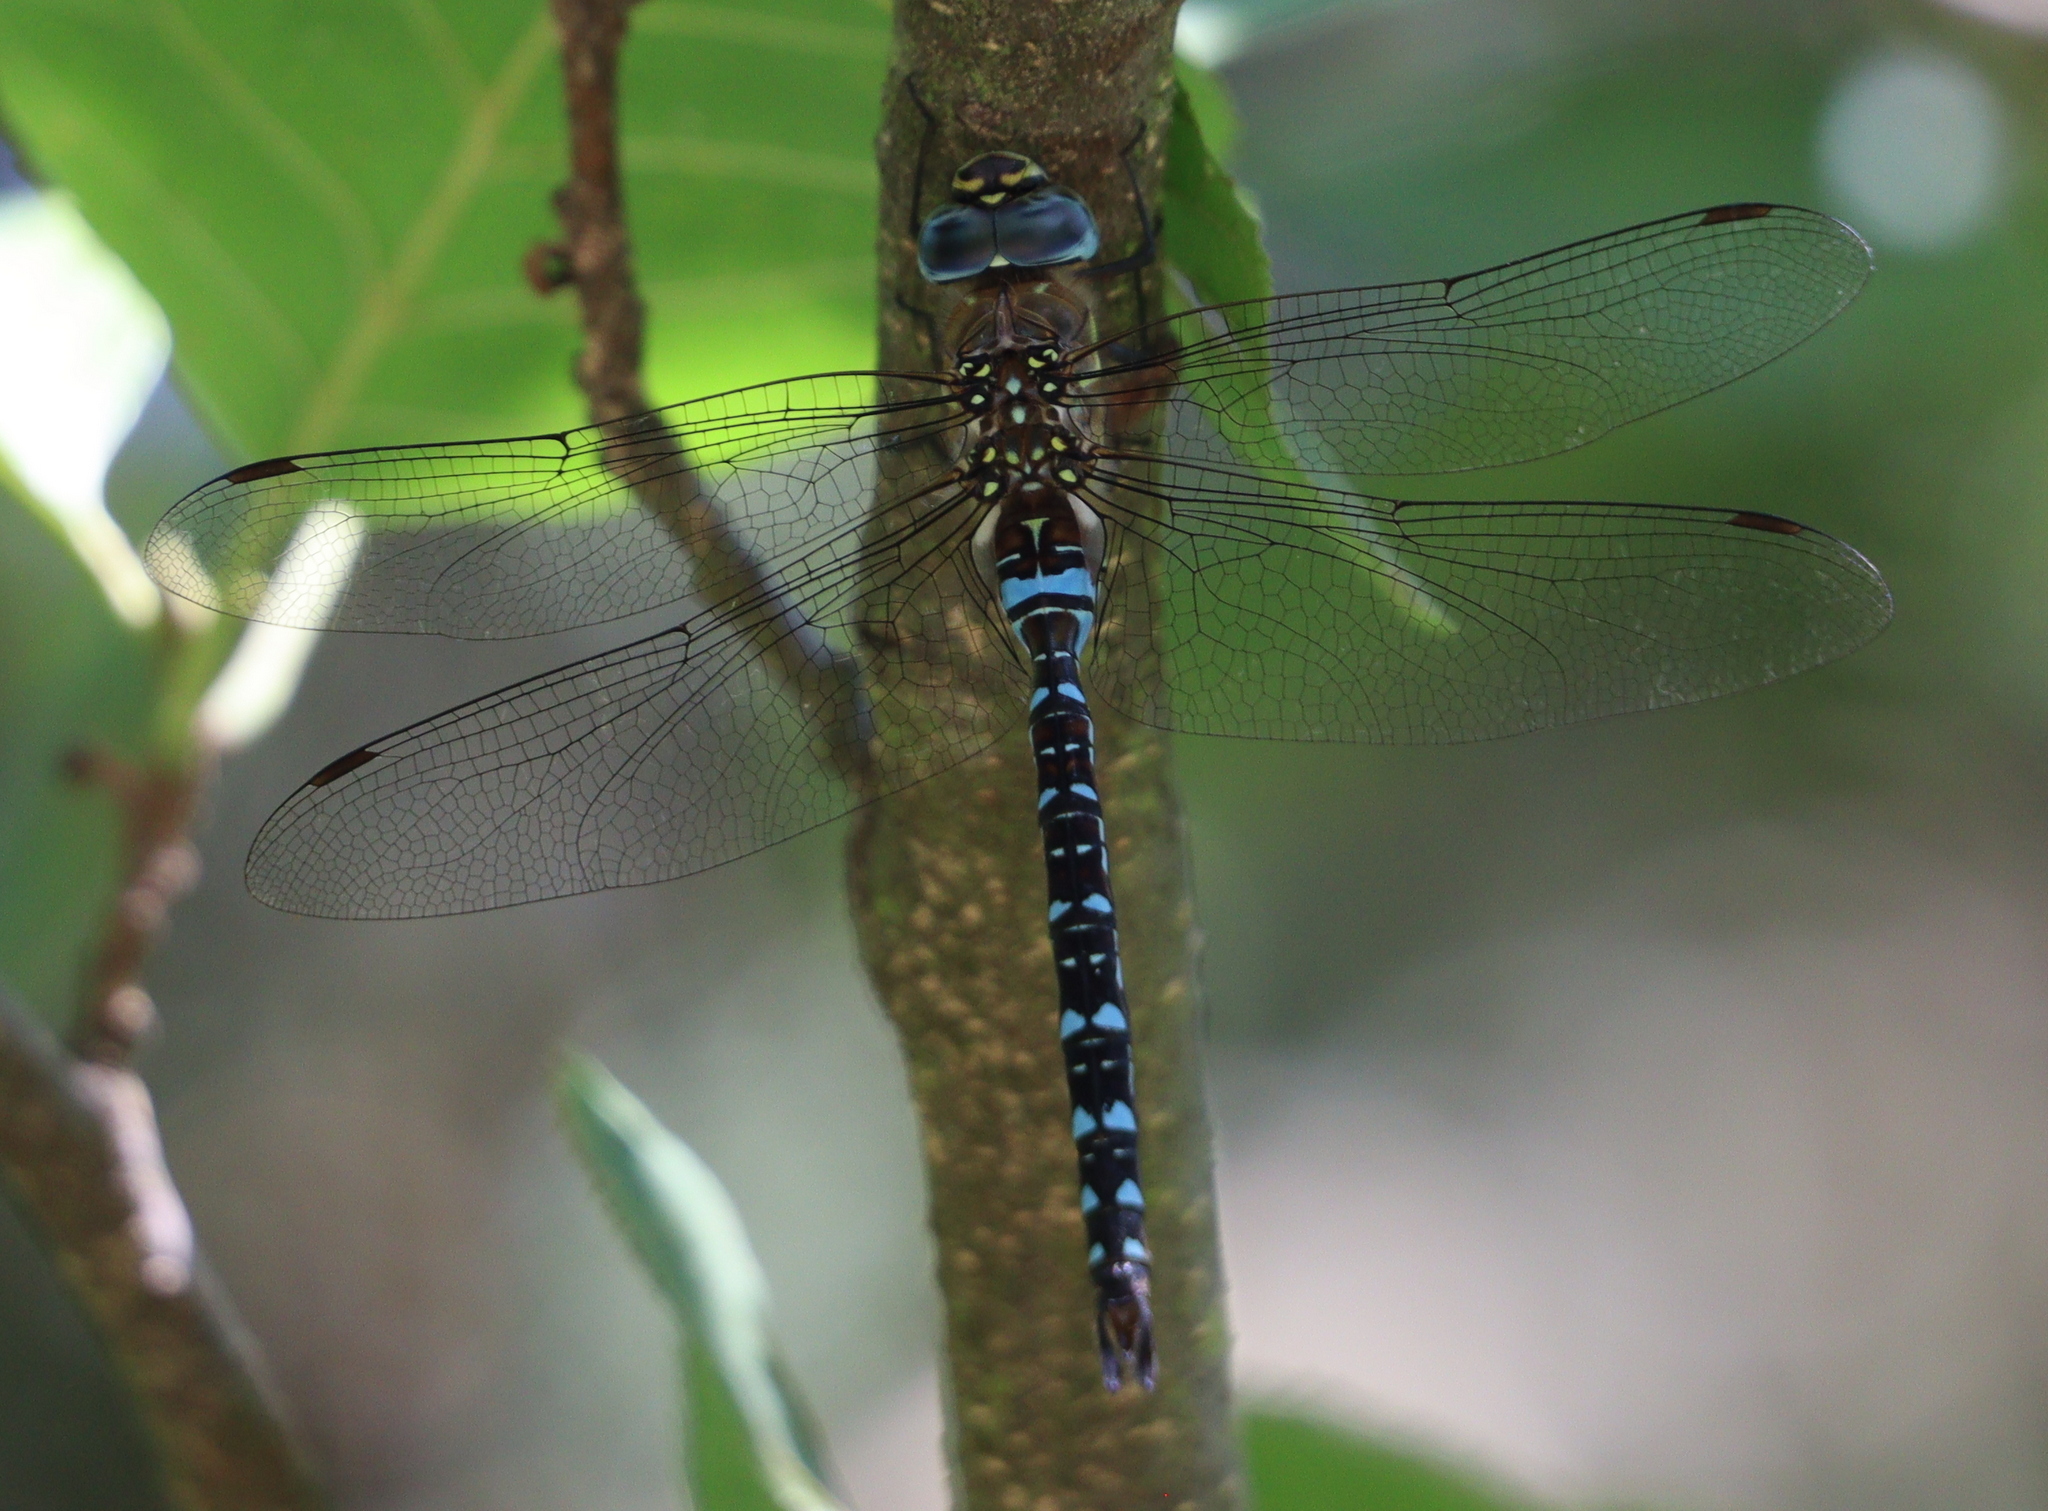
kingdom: Animalia
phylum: Arthropoda
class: Insecta
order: Odonata
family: Aeshnidae
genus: Aeshna
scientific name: Aeshna mixta
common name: Migrant hawker
